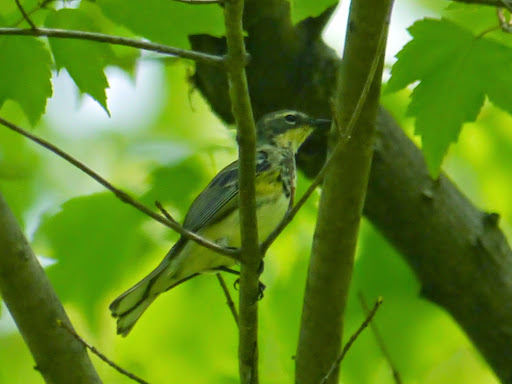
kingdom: Animalia
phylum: Chordata
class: Aves
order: Passeriformes
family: Parulidae
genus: Setophaga
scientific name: Setophaga coronata
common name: Myrtle warbler
